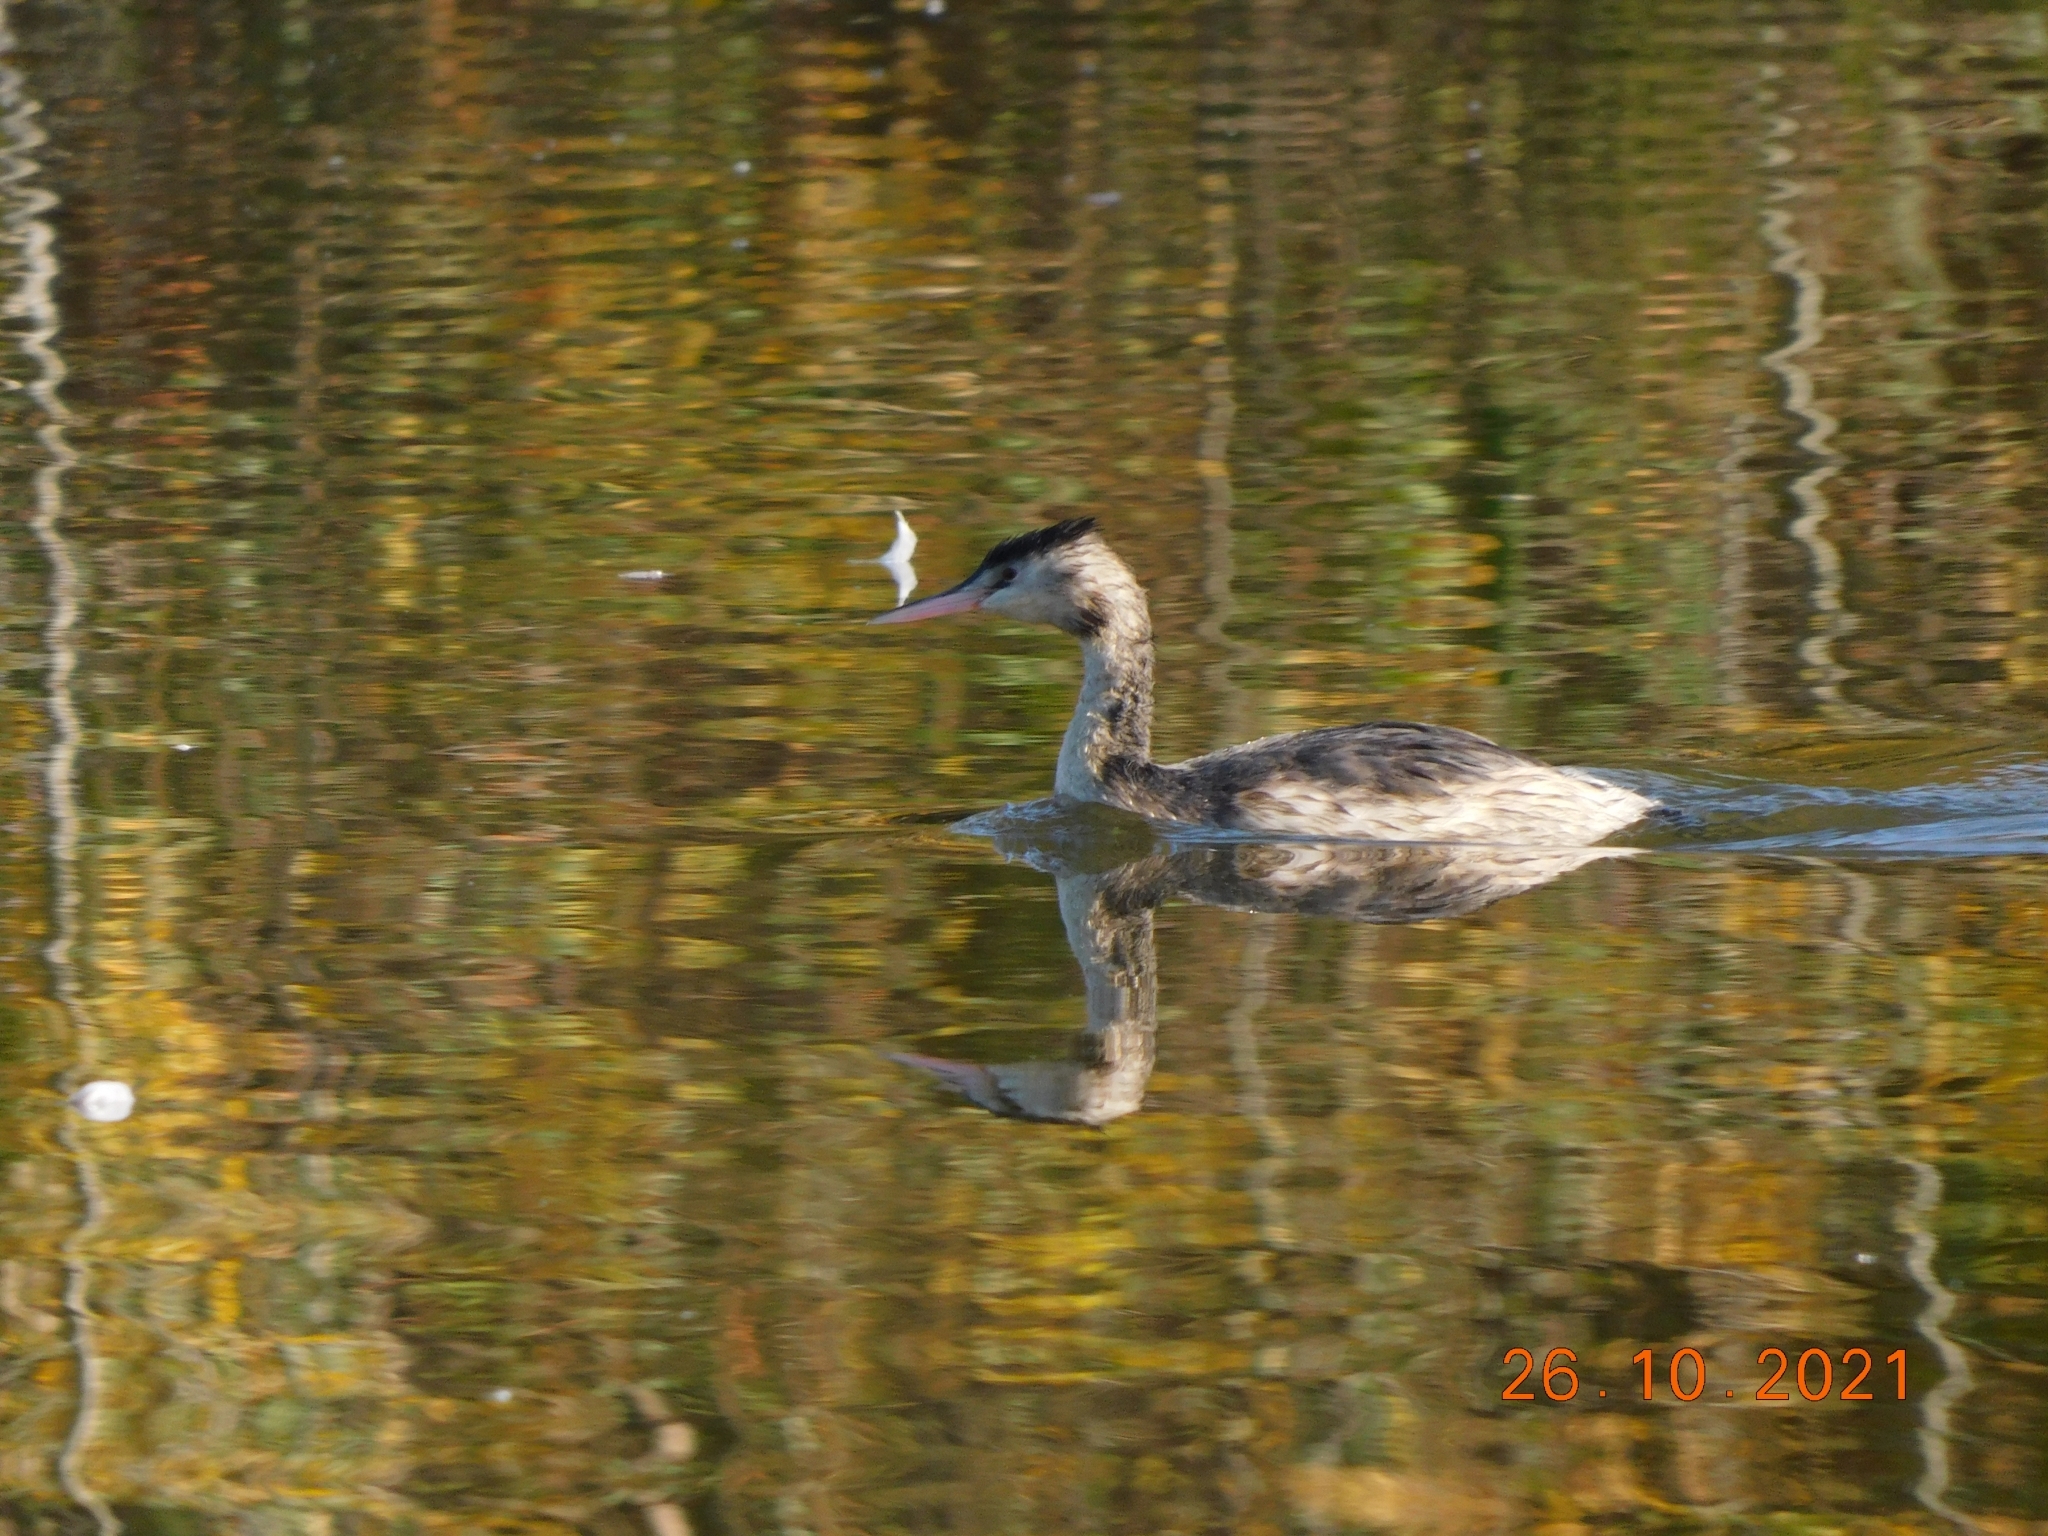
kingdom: Animalia
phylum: Chordata
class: Aves
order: Podicipediformes
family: Podicipedidae
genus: Podiceps
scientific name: Podiceps cristatus
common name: Great crested grebe
